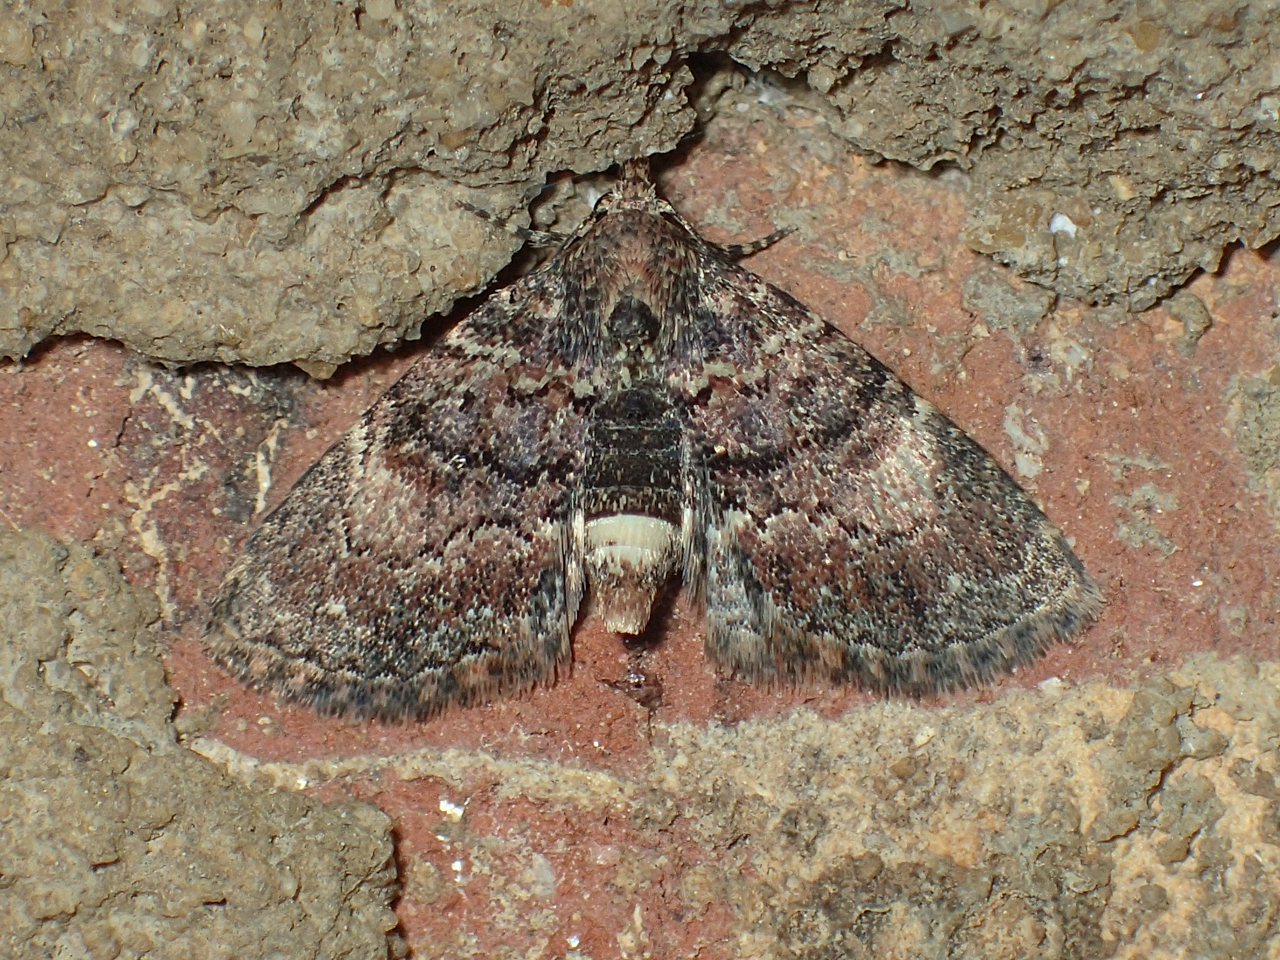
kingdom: Animalia
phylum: Arthropoda
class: Insecta
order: Lepidoptera
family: Erebidae
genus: Metalectra
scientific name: Metalectra richardsi
